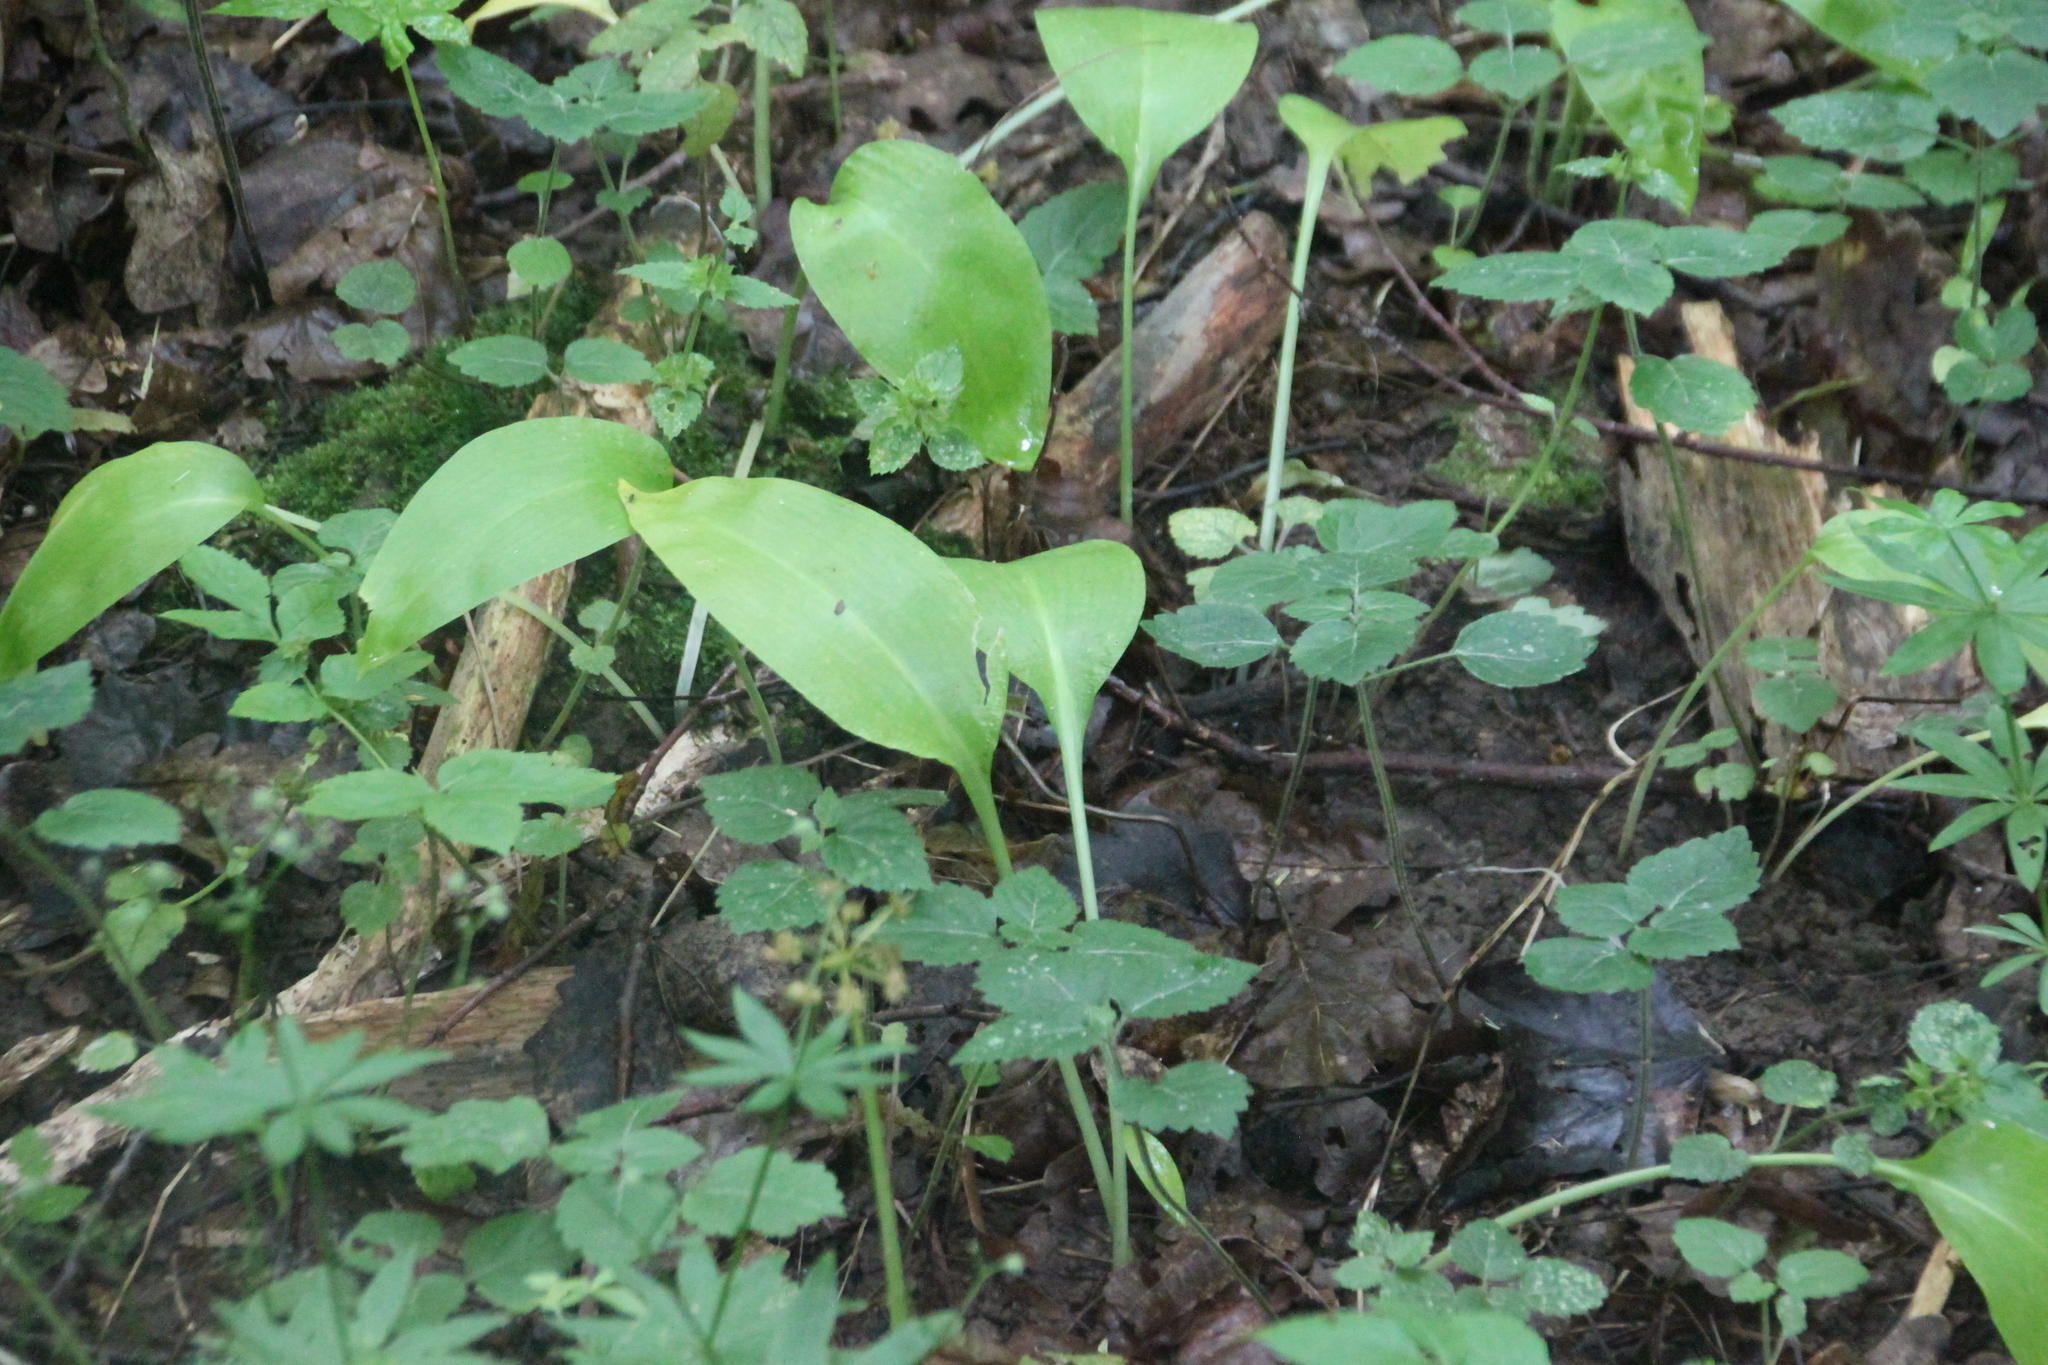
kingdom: Plantae
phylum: Tracheophyta
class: Liliopsida
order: Asparagales
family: Amaryllidaceae
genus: Allium
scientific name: Allium ursinum
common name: Ramsons
